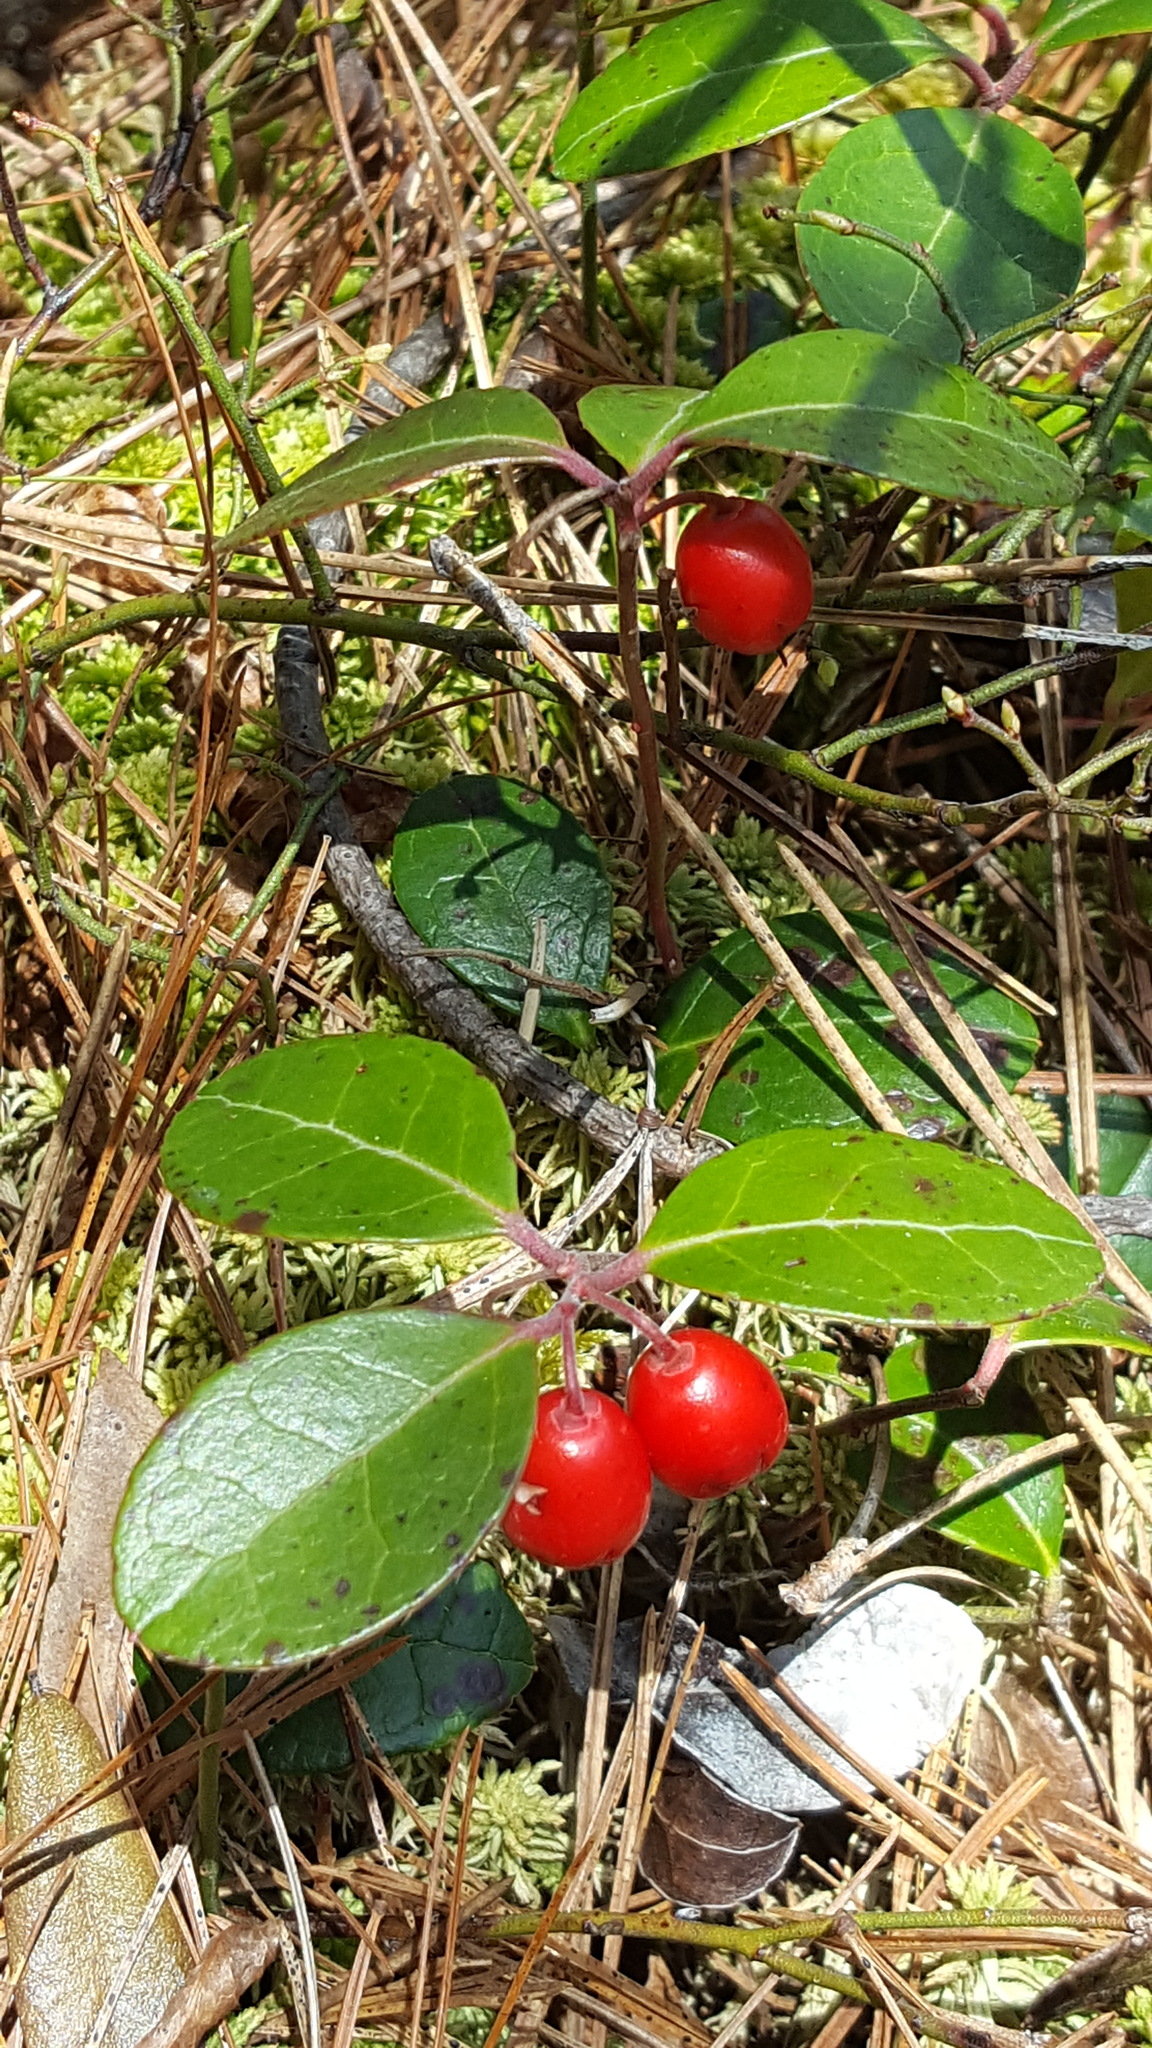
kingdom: Plantae
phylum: Tracheophyta
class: Magnoliopsida
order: Ericales
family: Ericaceae
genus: Gaultheria
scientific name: Gaultheria procumbens
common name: Checkerberry
